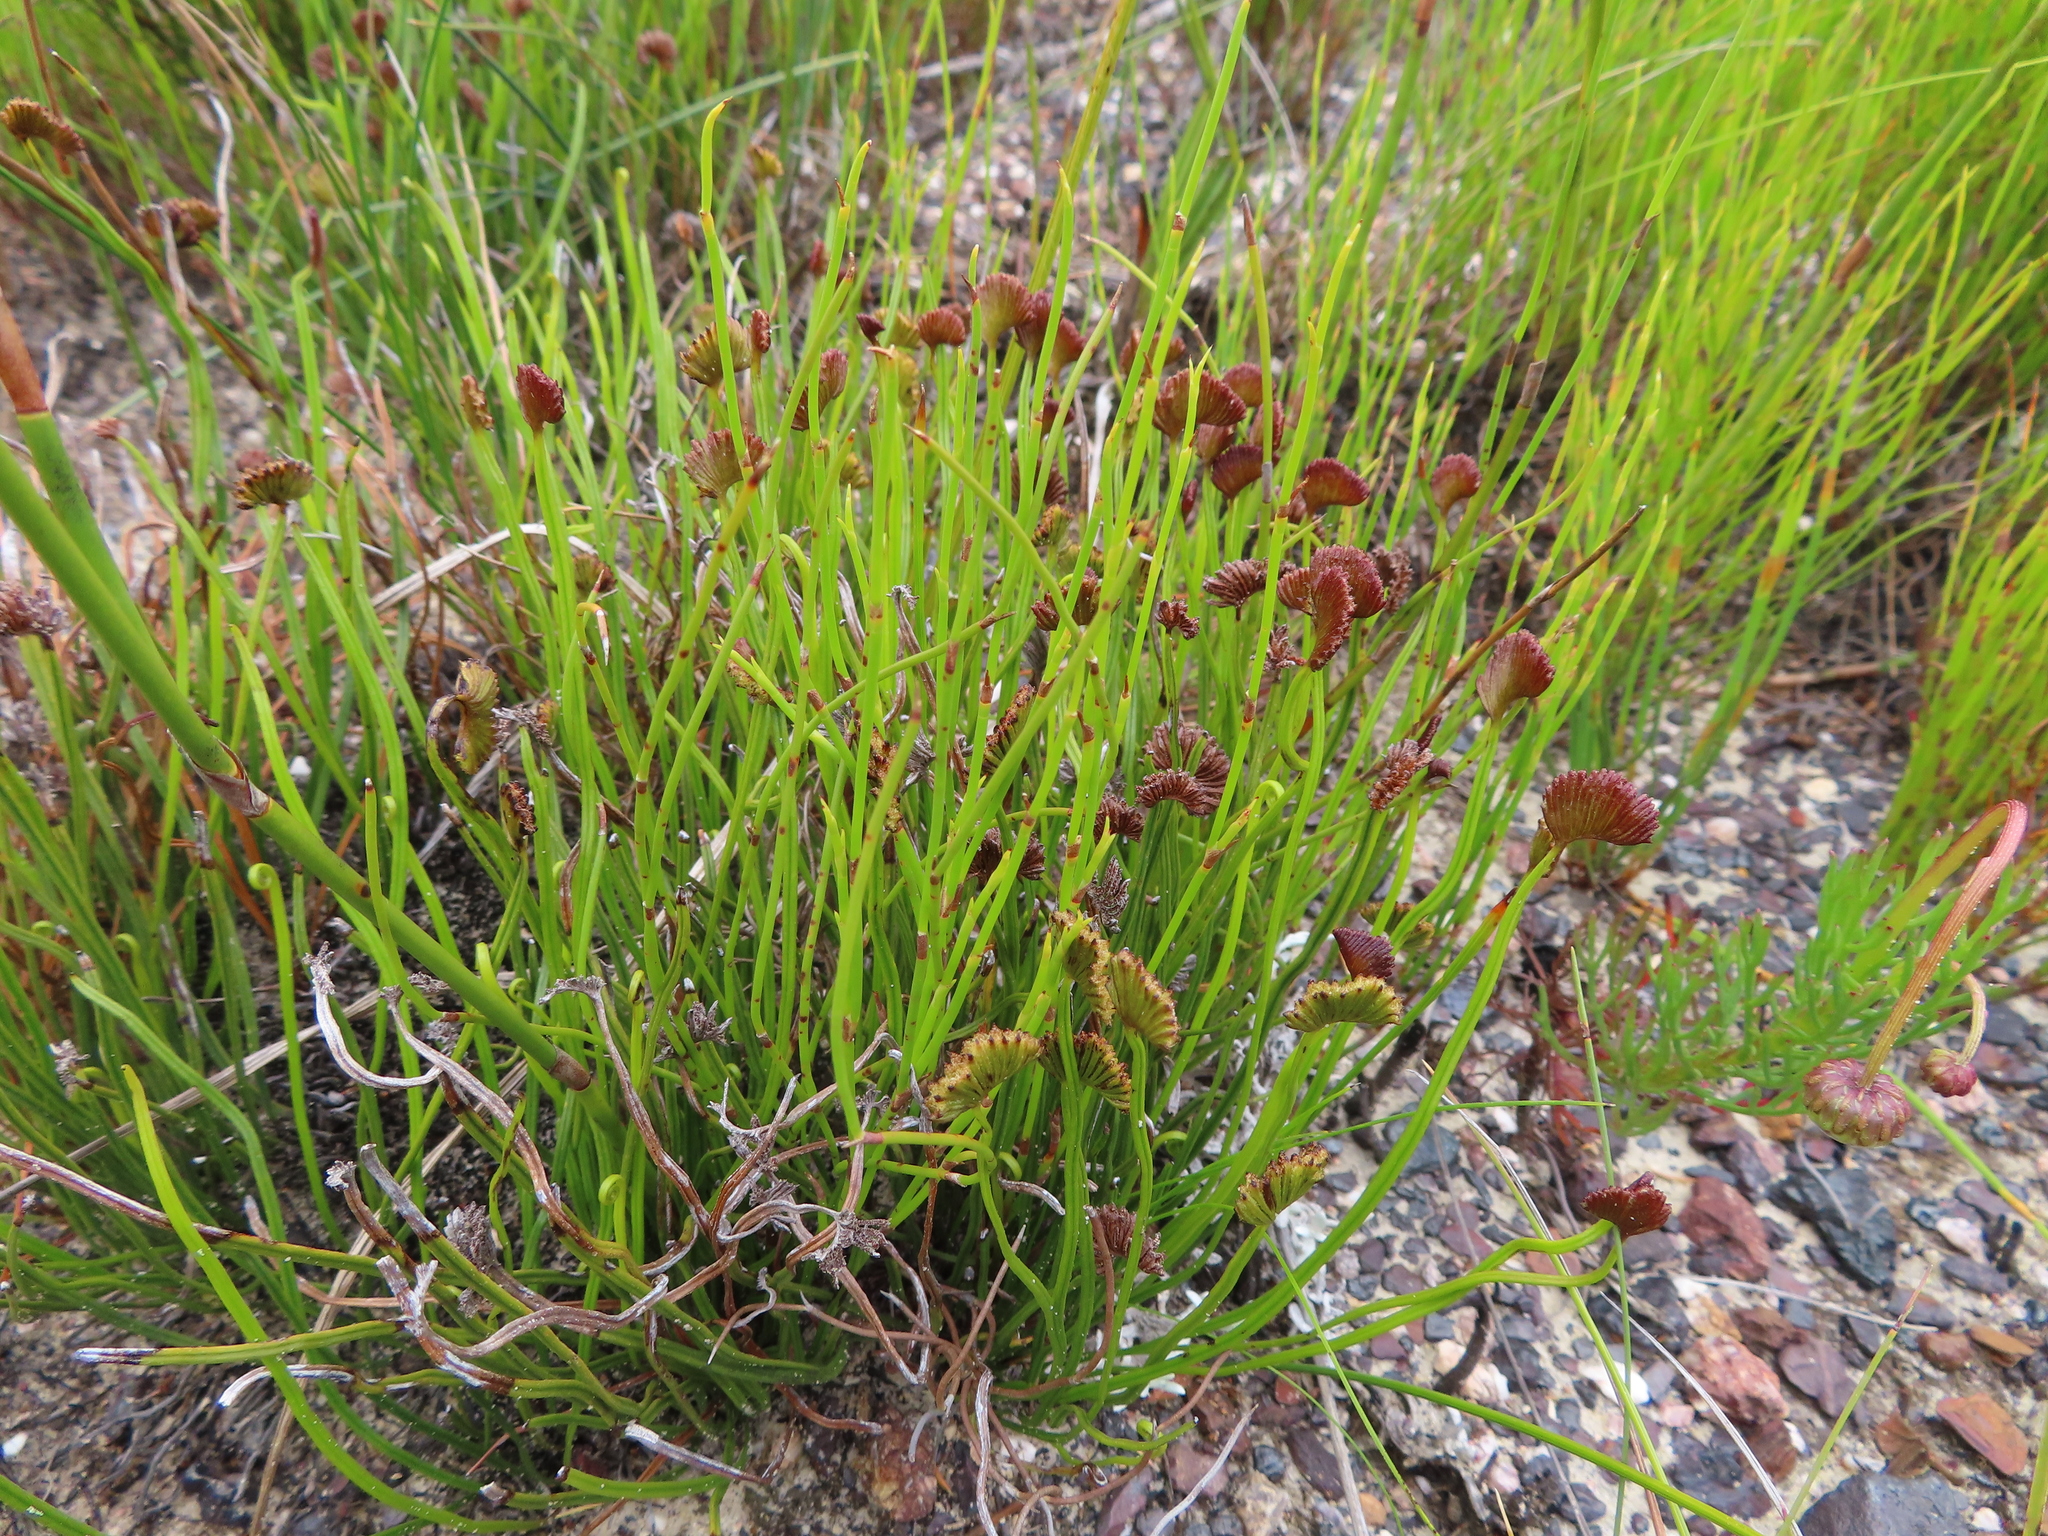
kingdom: Plantae
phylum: Tracheophyta
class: Polypodiopsida
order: Schizaeales
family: Schizaeaceae
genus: Schizaea
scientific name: Schizaea pectinata
